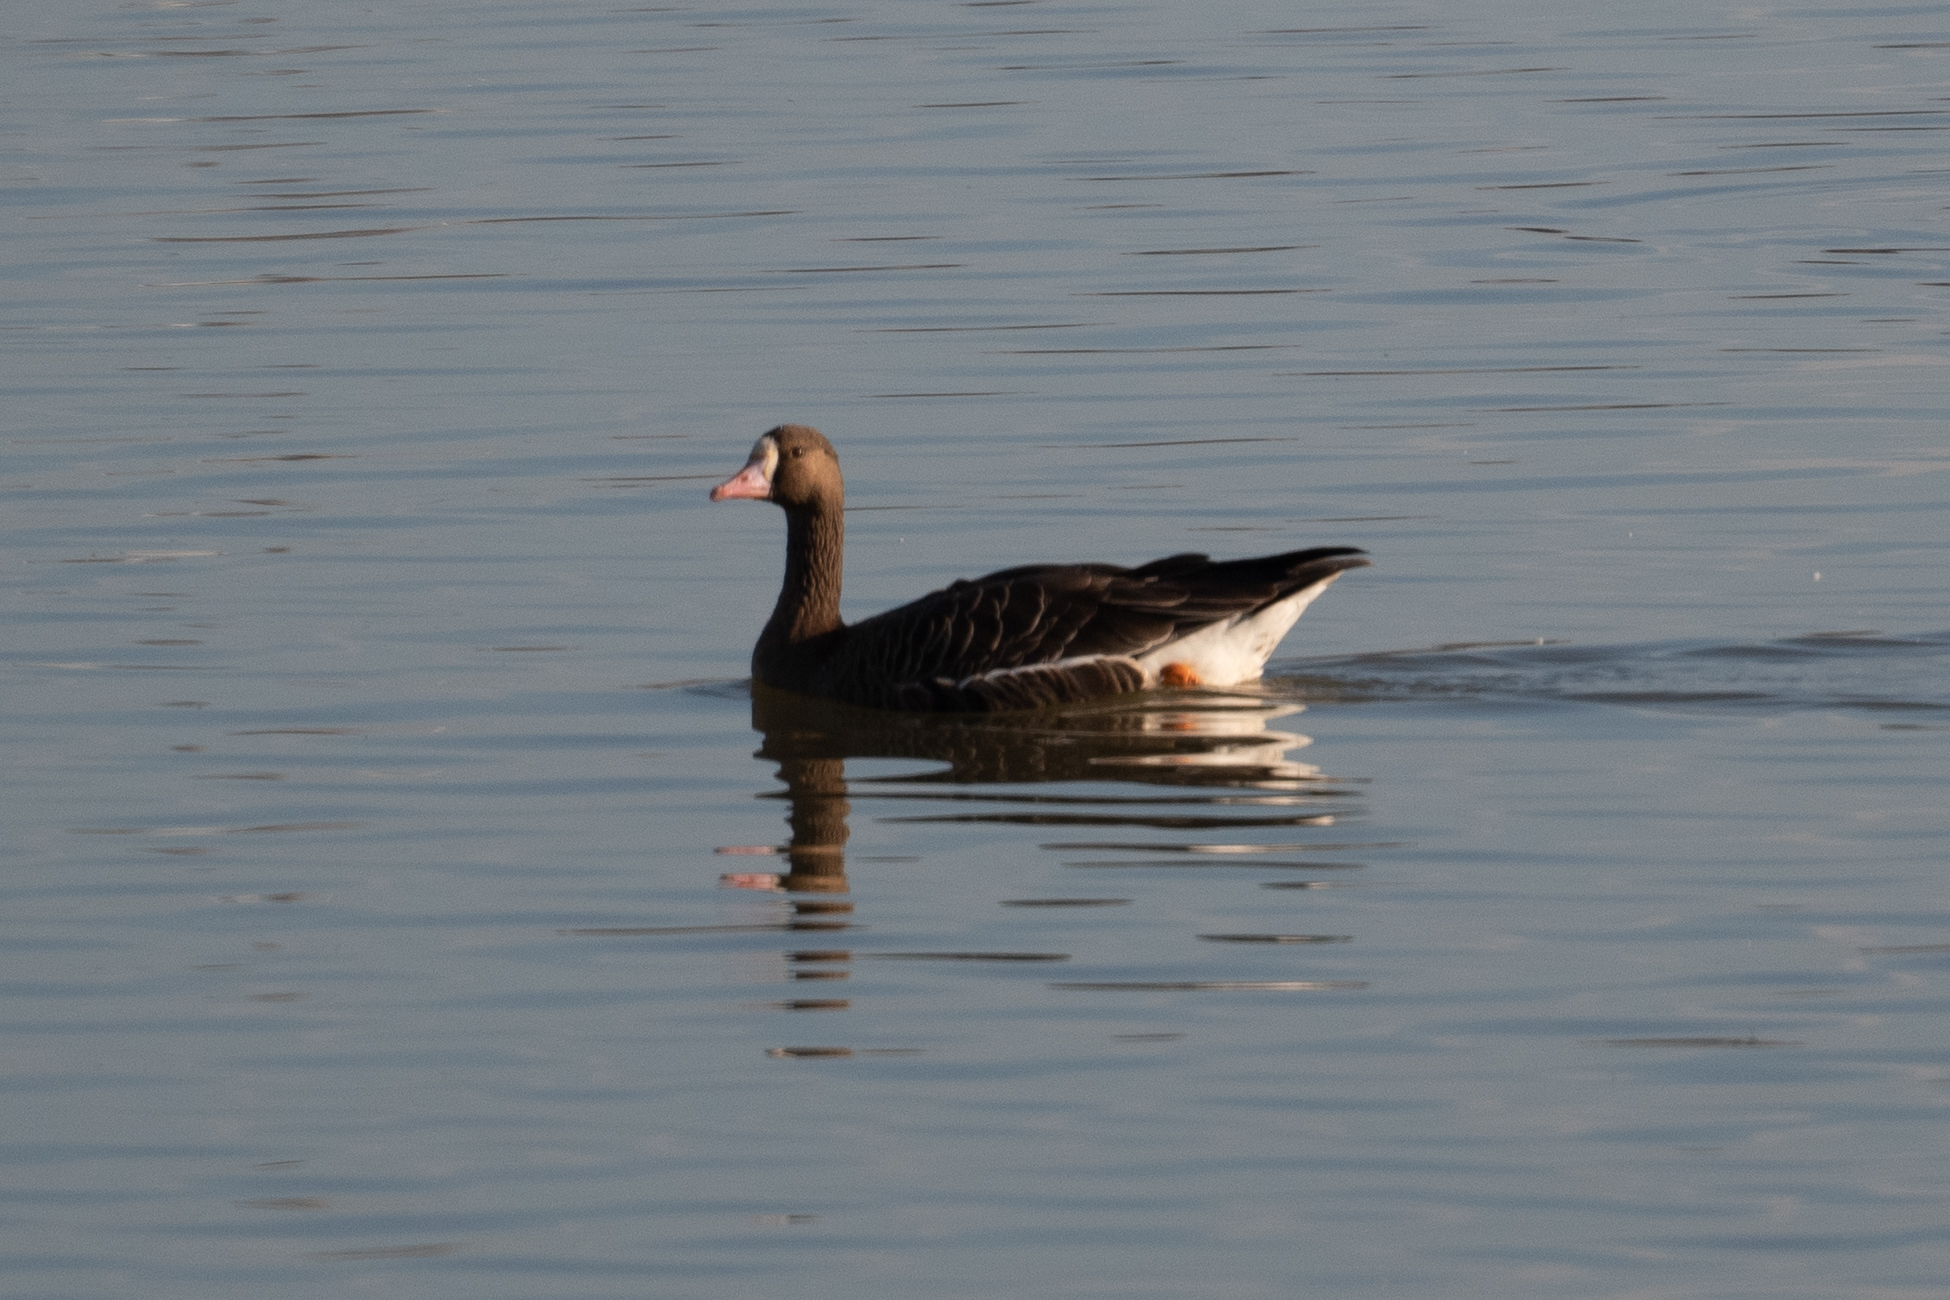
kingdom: Animalia
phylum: Chordata
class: Aves
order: Anseriformes
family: Anatidae
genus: Anser
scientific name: Anser albifrons
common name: Greater white-fronted goose
